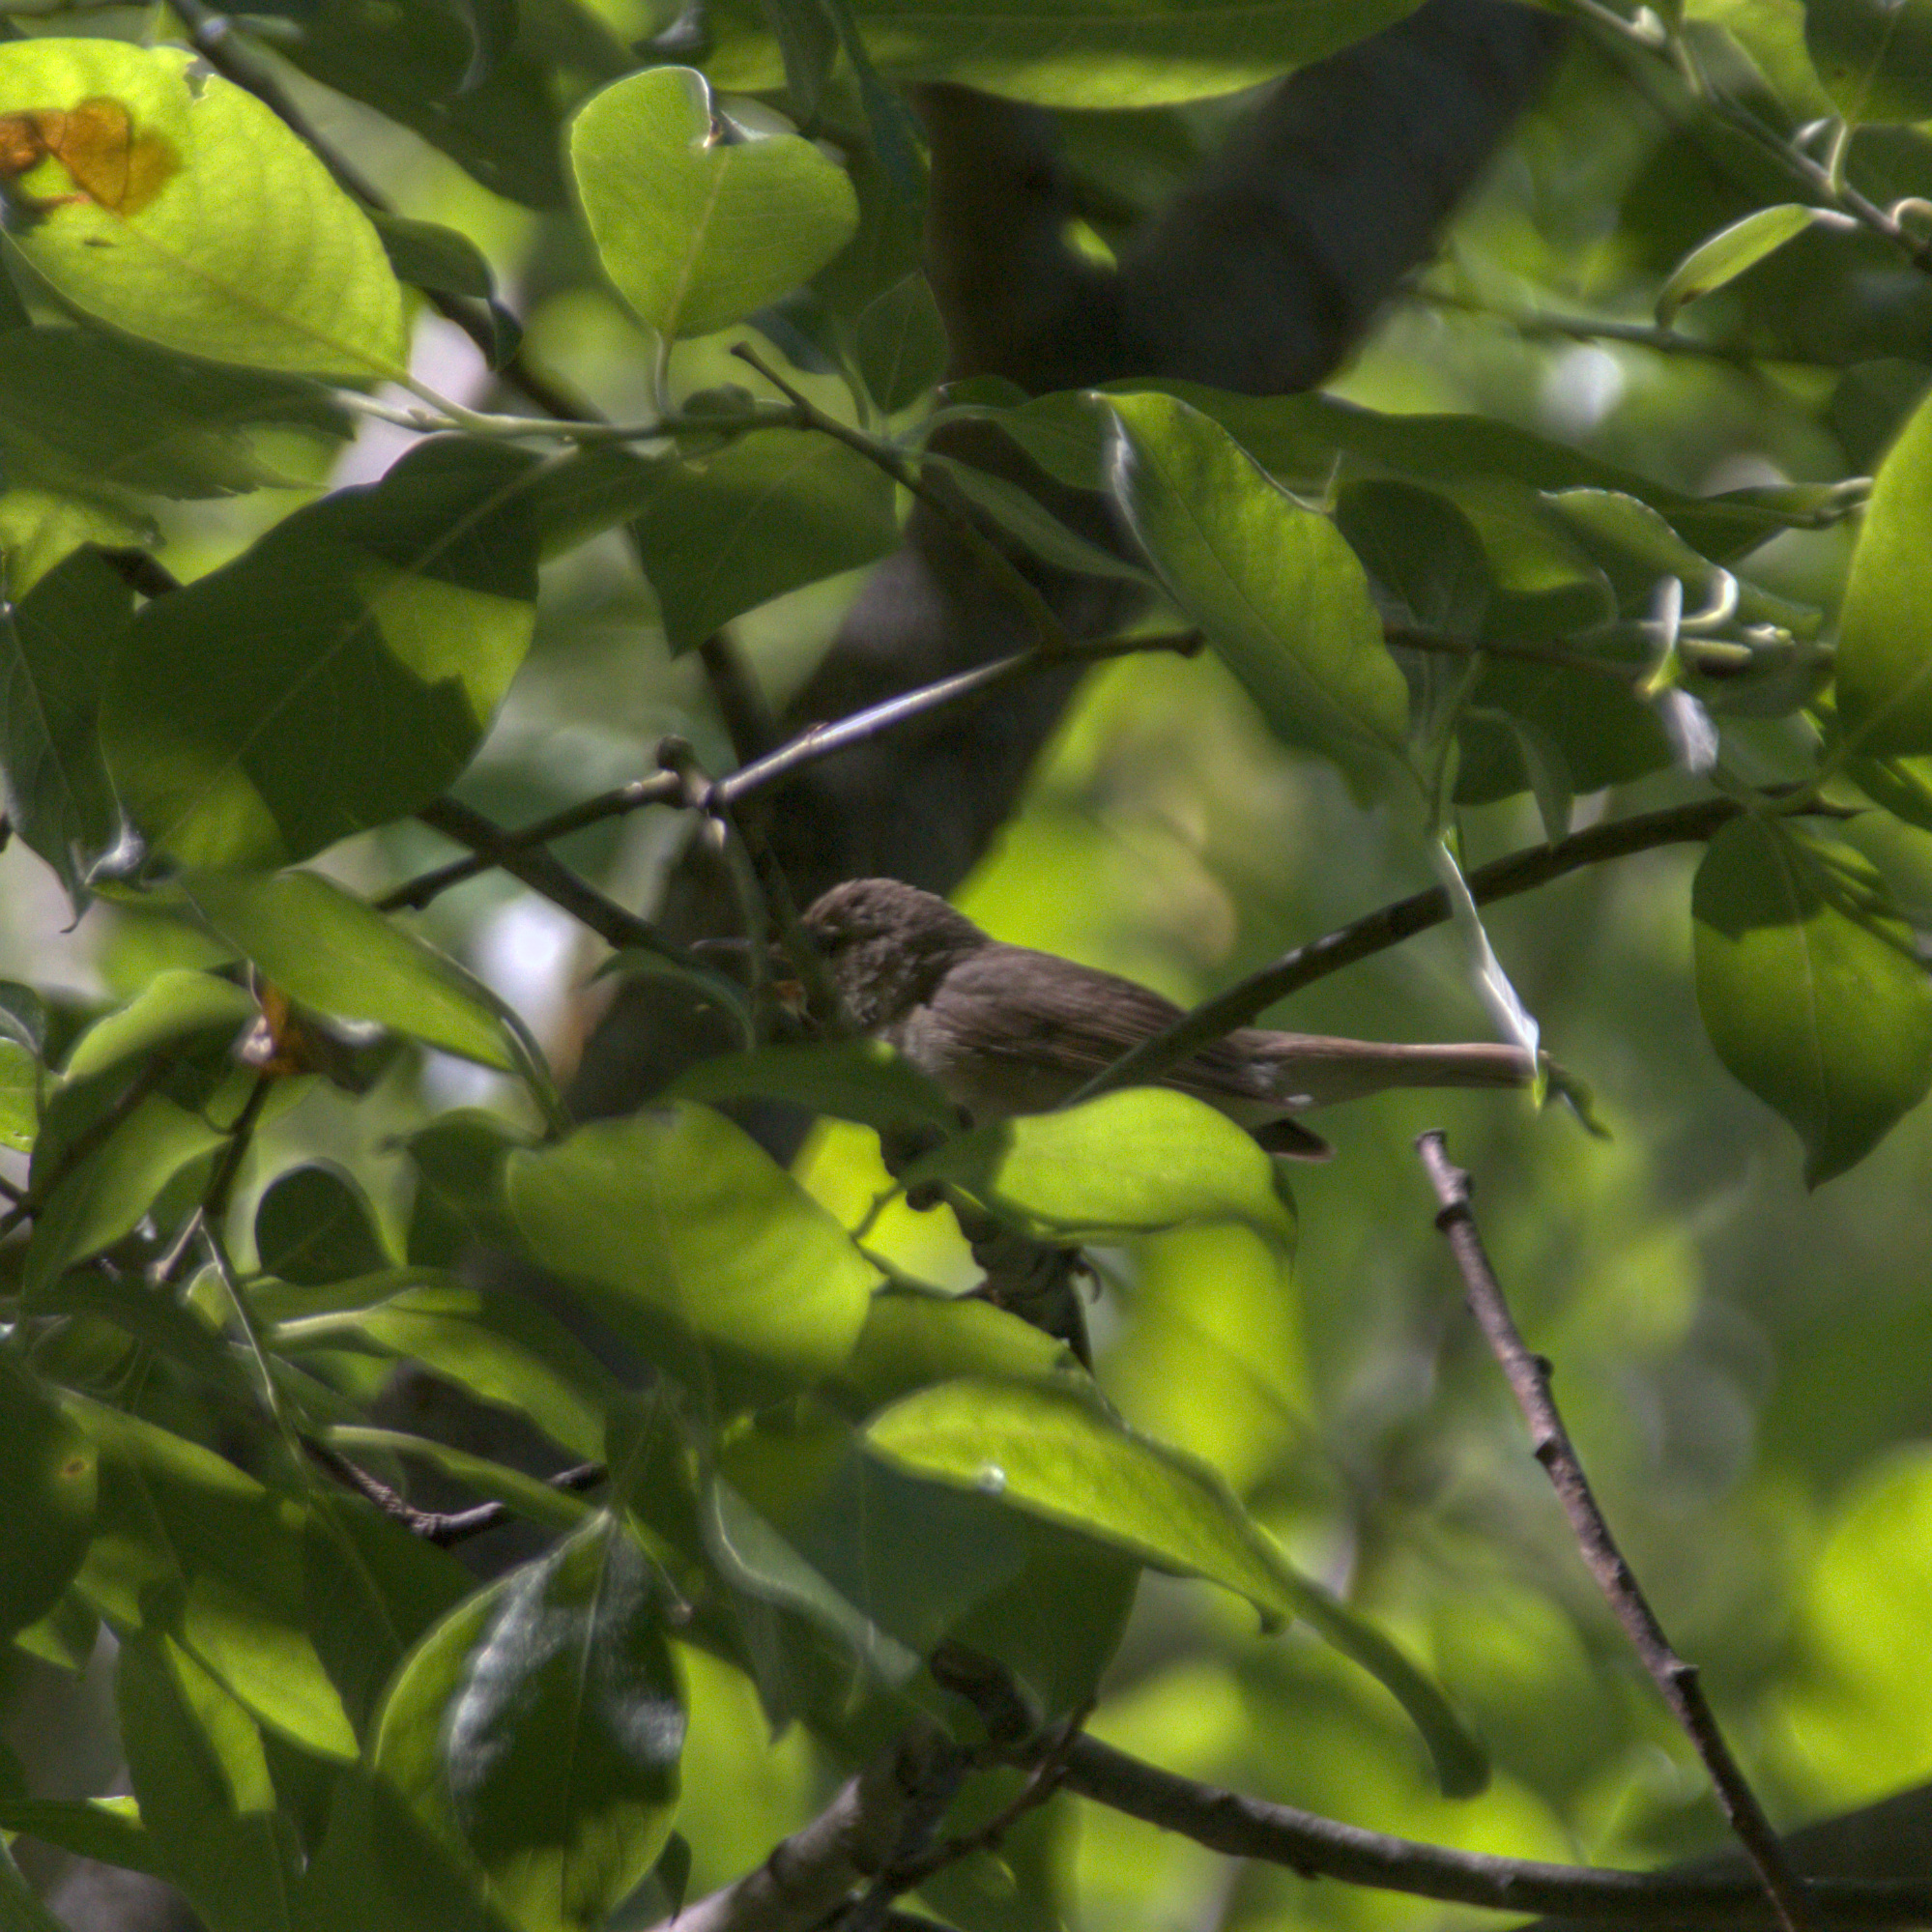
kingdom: Animalia
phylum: Chordata
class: Aves
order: Passeriformes
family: Acrocephalidae
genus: Acrocephalus
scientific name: Acrocephalus dumetorum
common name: Blyth's reed warbler
